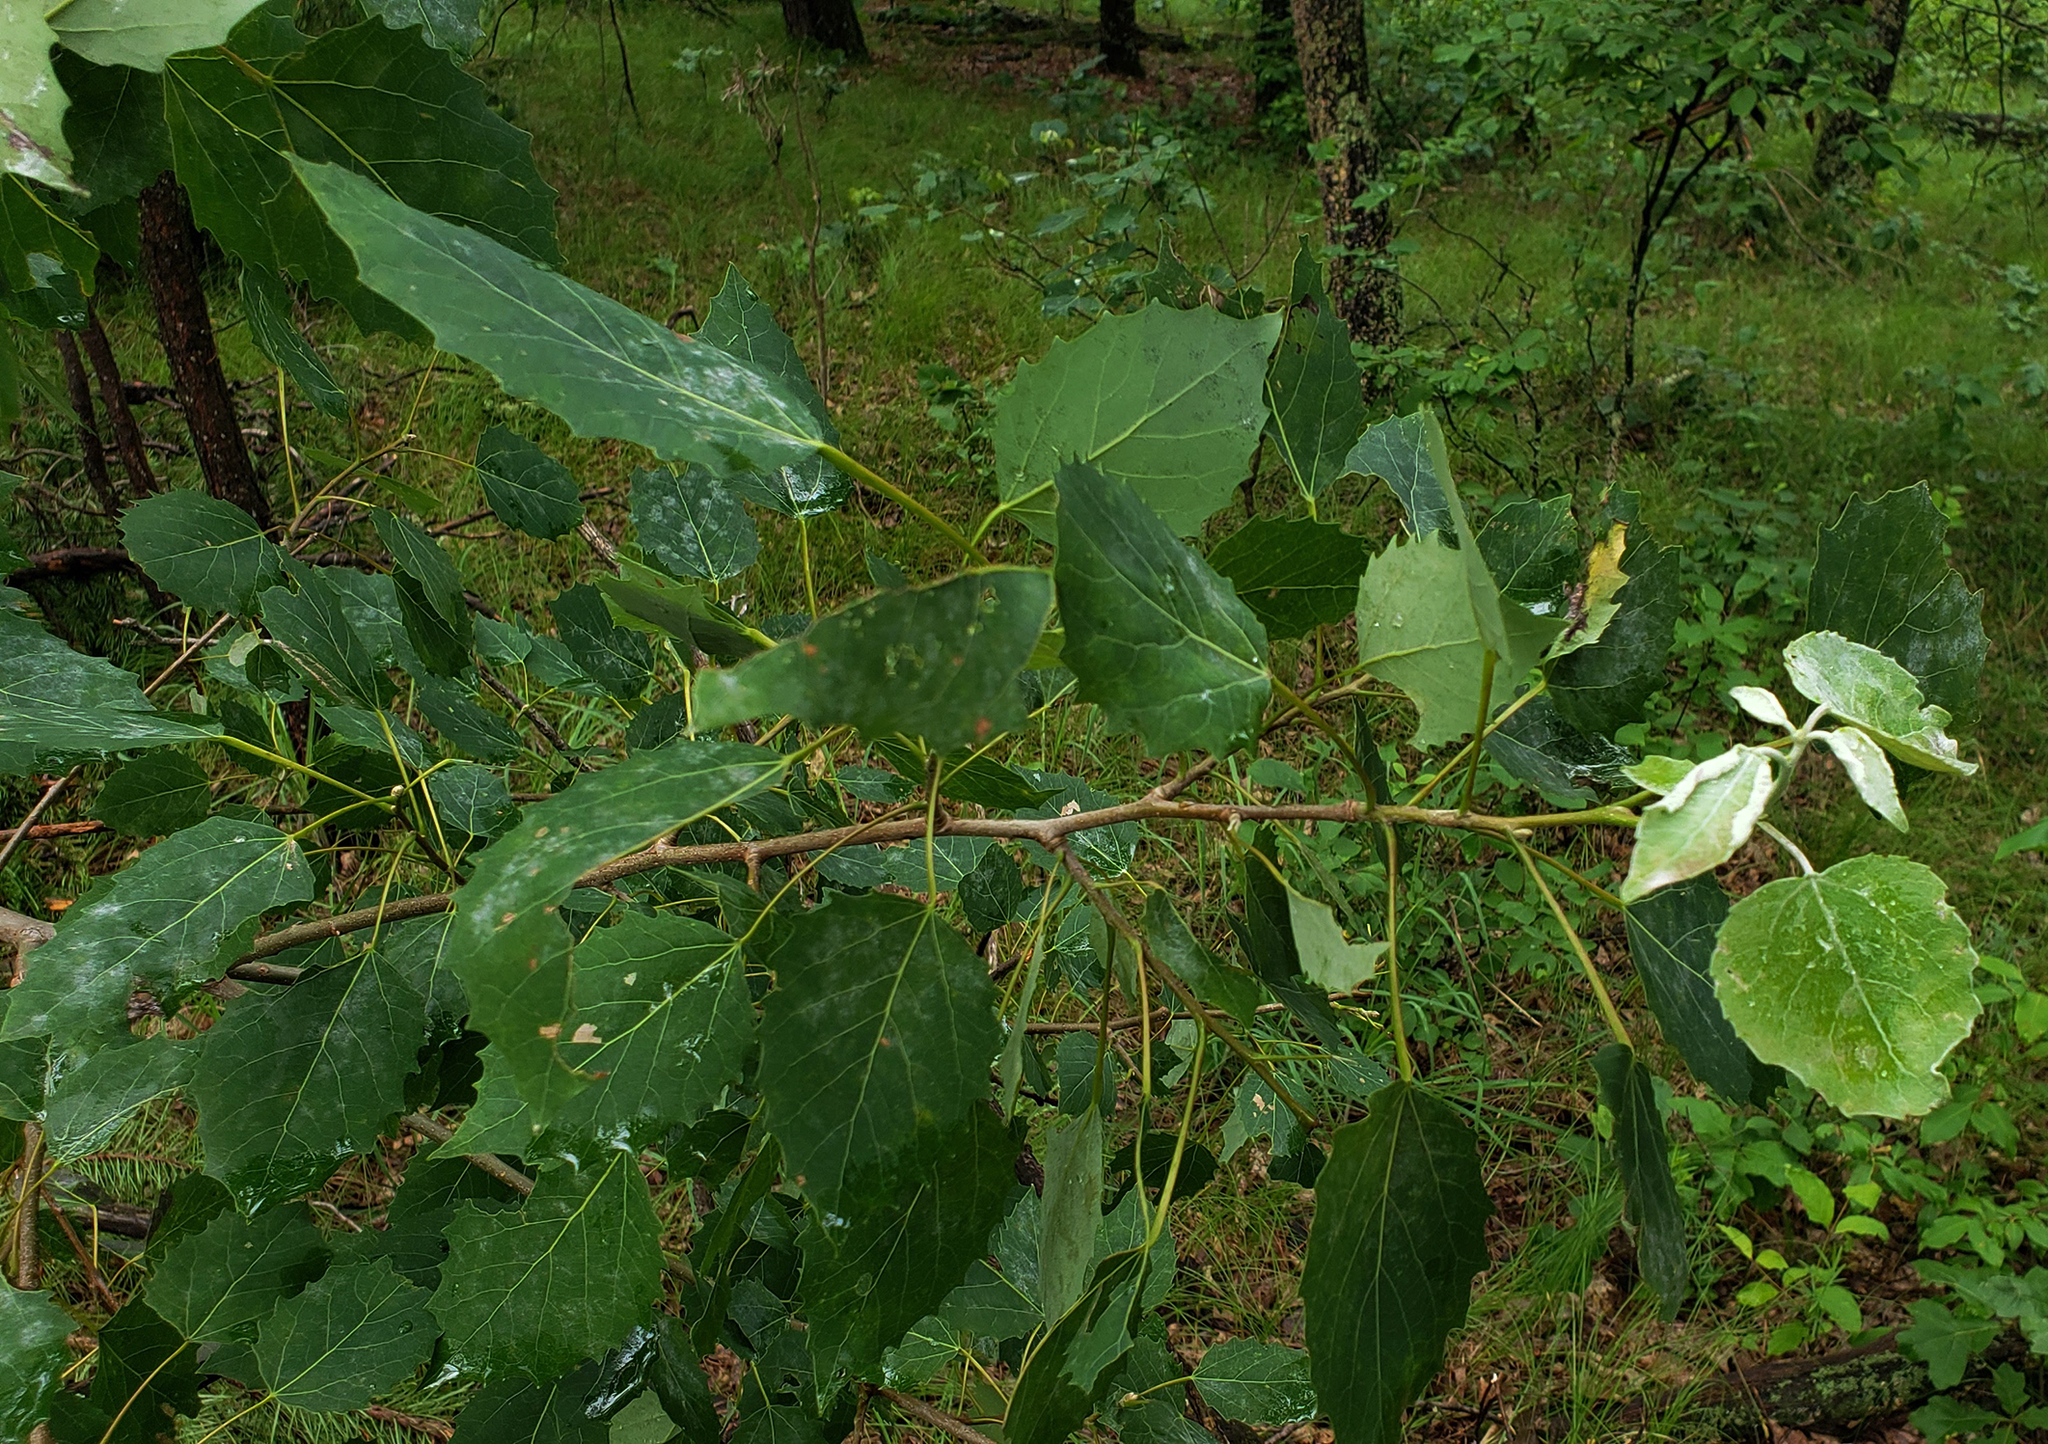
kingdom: Plantae
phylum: Tracheophyta
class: Magnoliopsida
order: Malpighiales
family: Salicaceae
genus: Populus
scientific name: Populus grandidentata
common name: Bigtooth aspen
